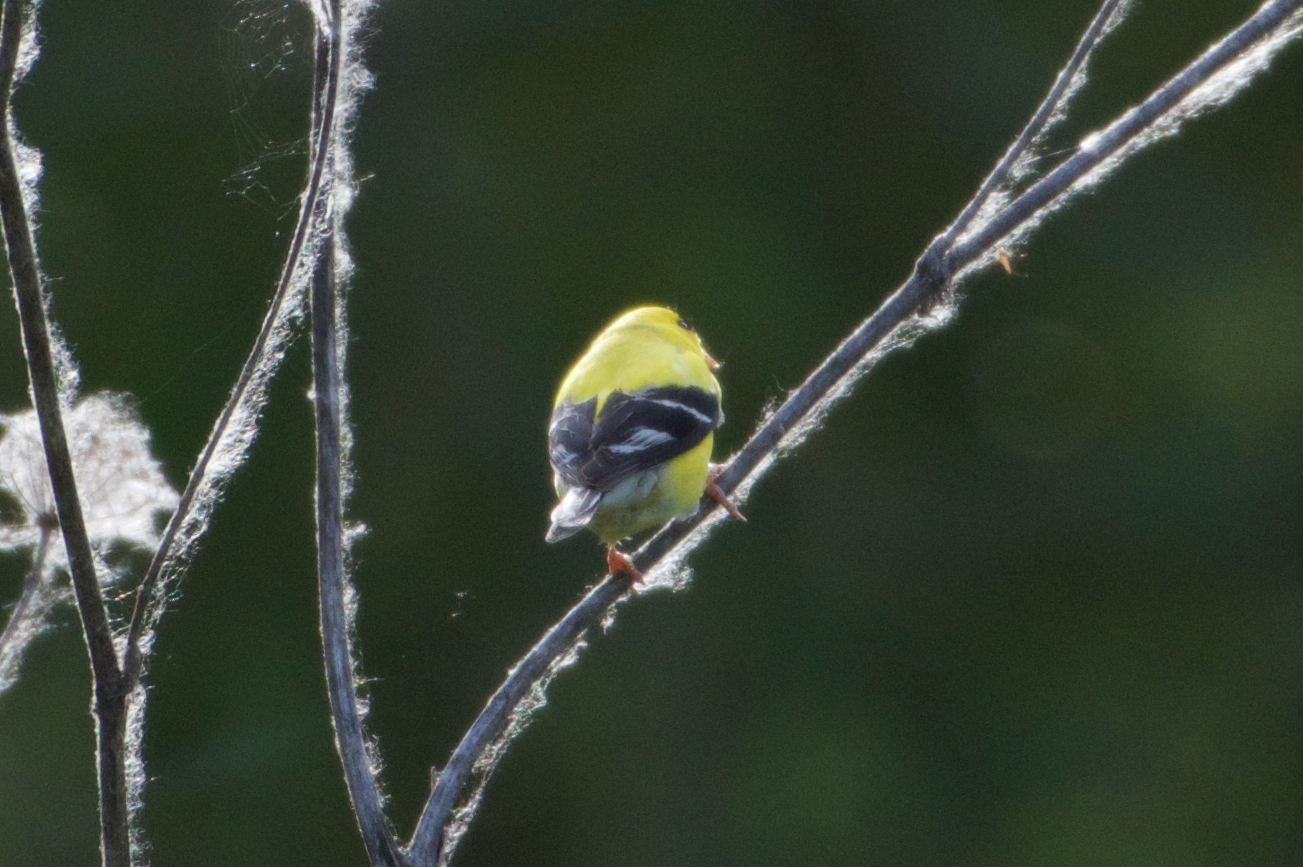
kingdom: Animalia
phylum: Chordata
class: Aves
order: Passeriformes
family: Fringillidae
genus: Spinus
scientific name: Spinus tristis
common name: American goldfinch
